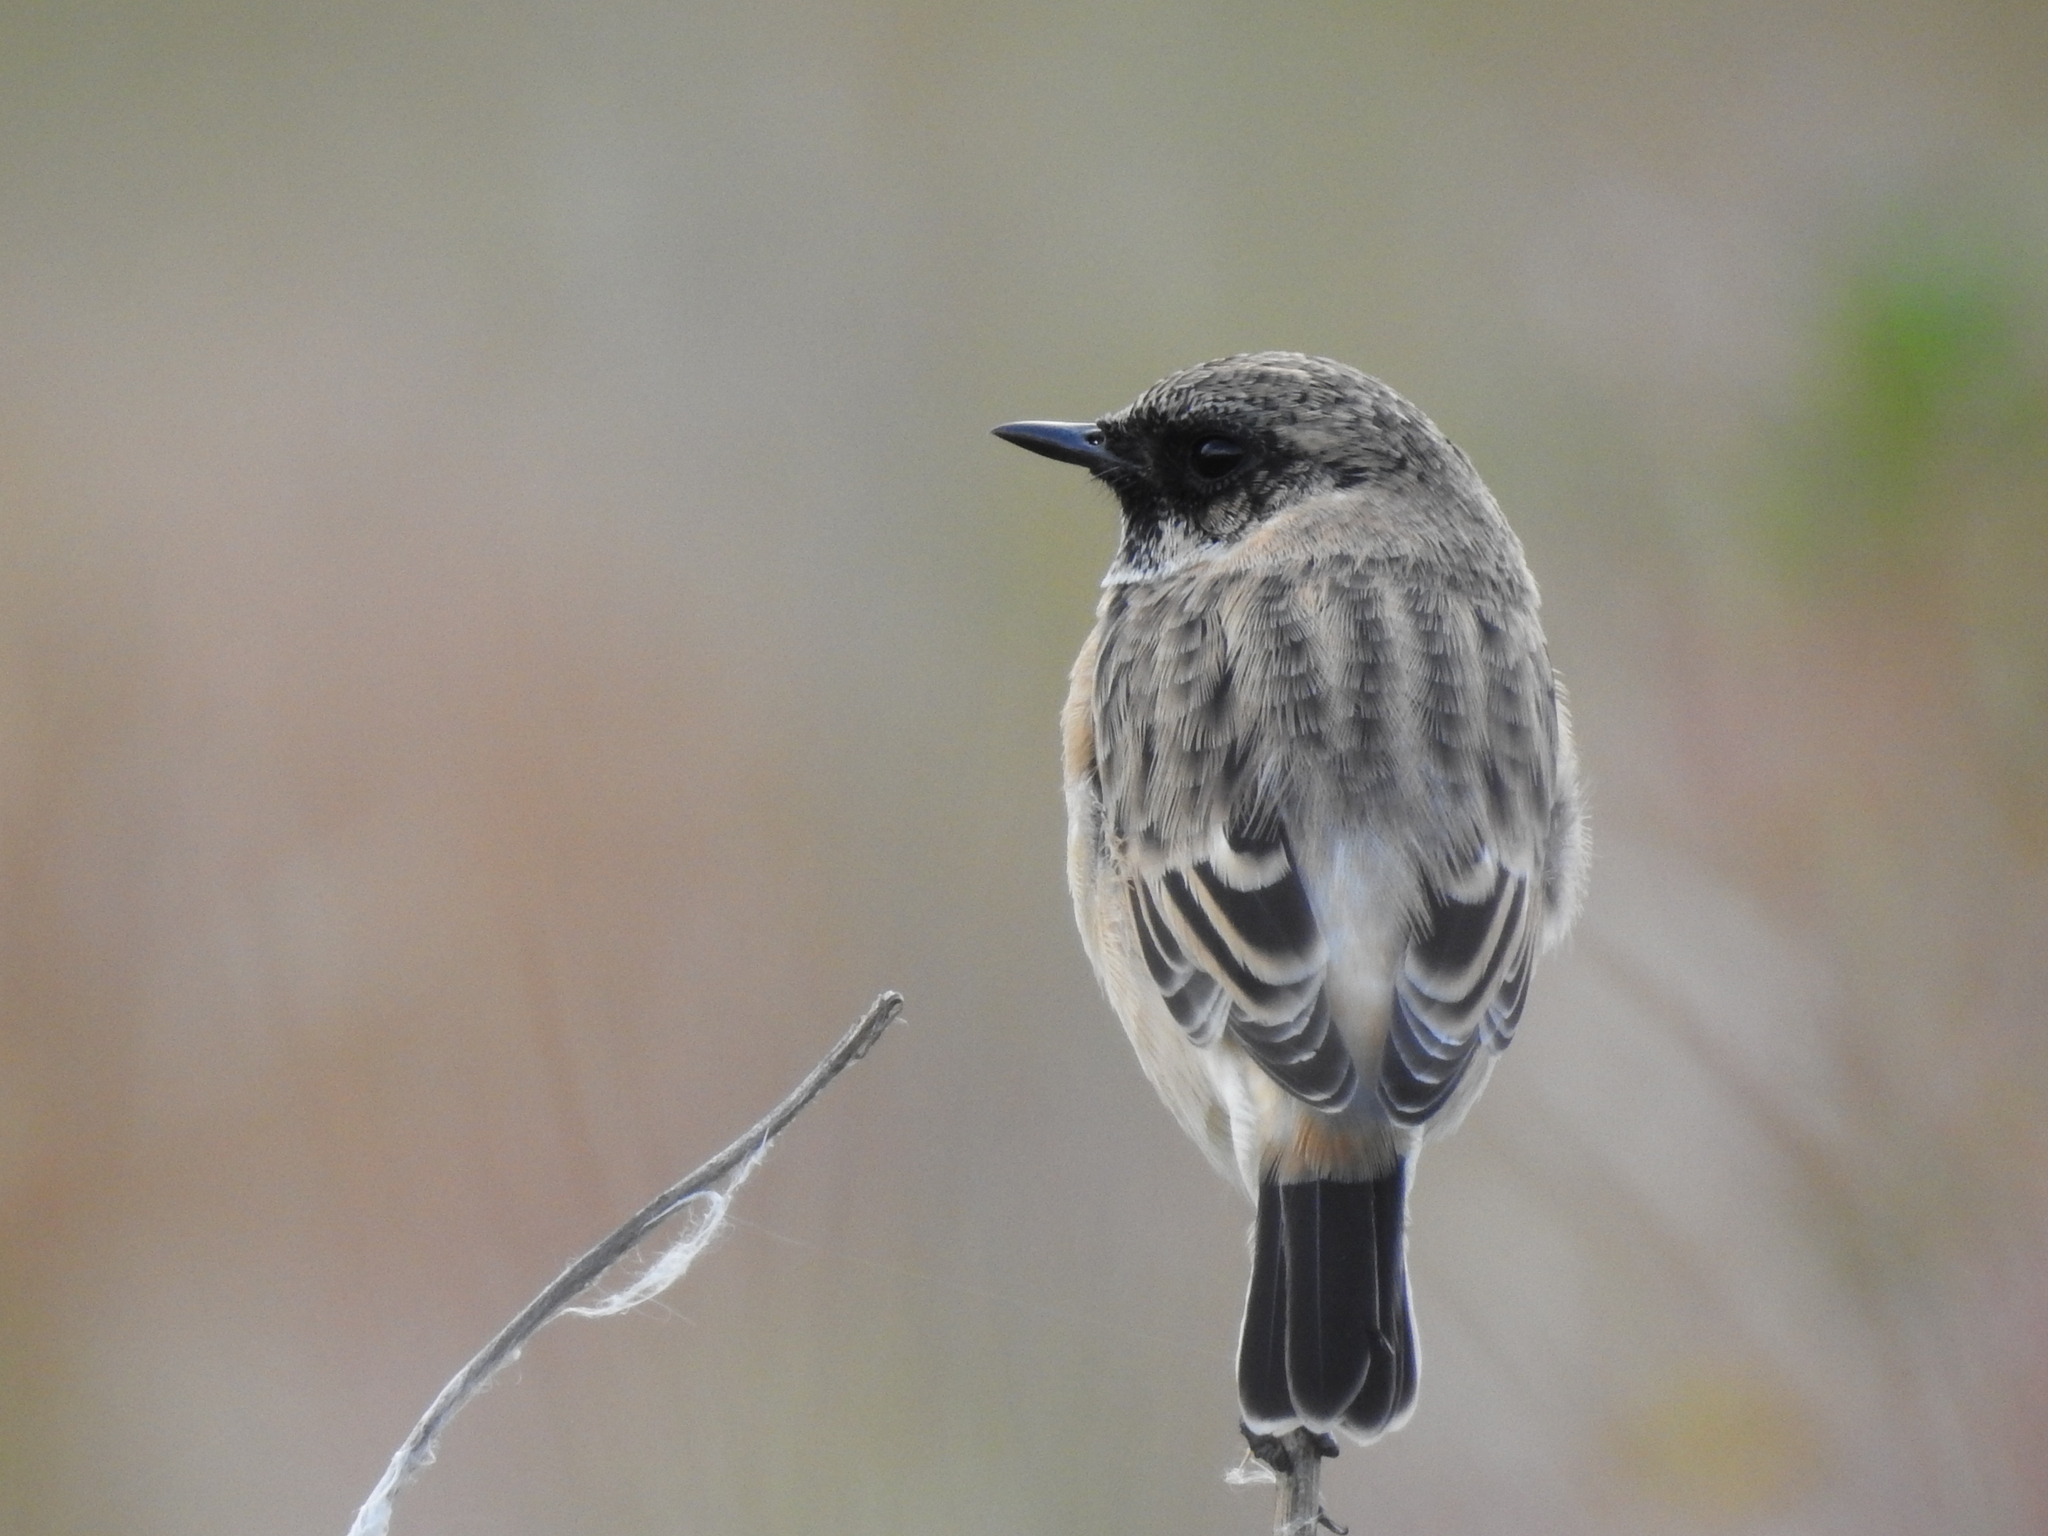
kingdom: Animalia
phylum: Chordata
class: Aves
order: Passeriformes
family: Muscicapidae
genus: Saxicola
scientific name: Saxicola maurus
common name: Siberian stonechat
